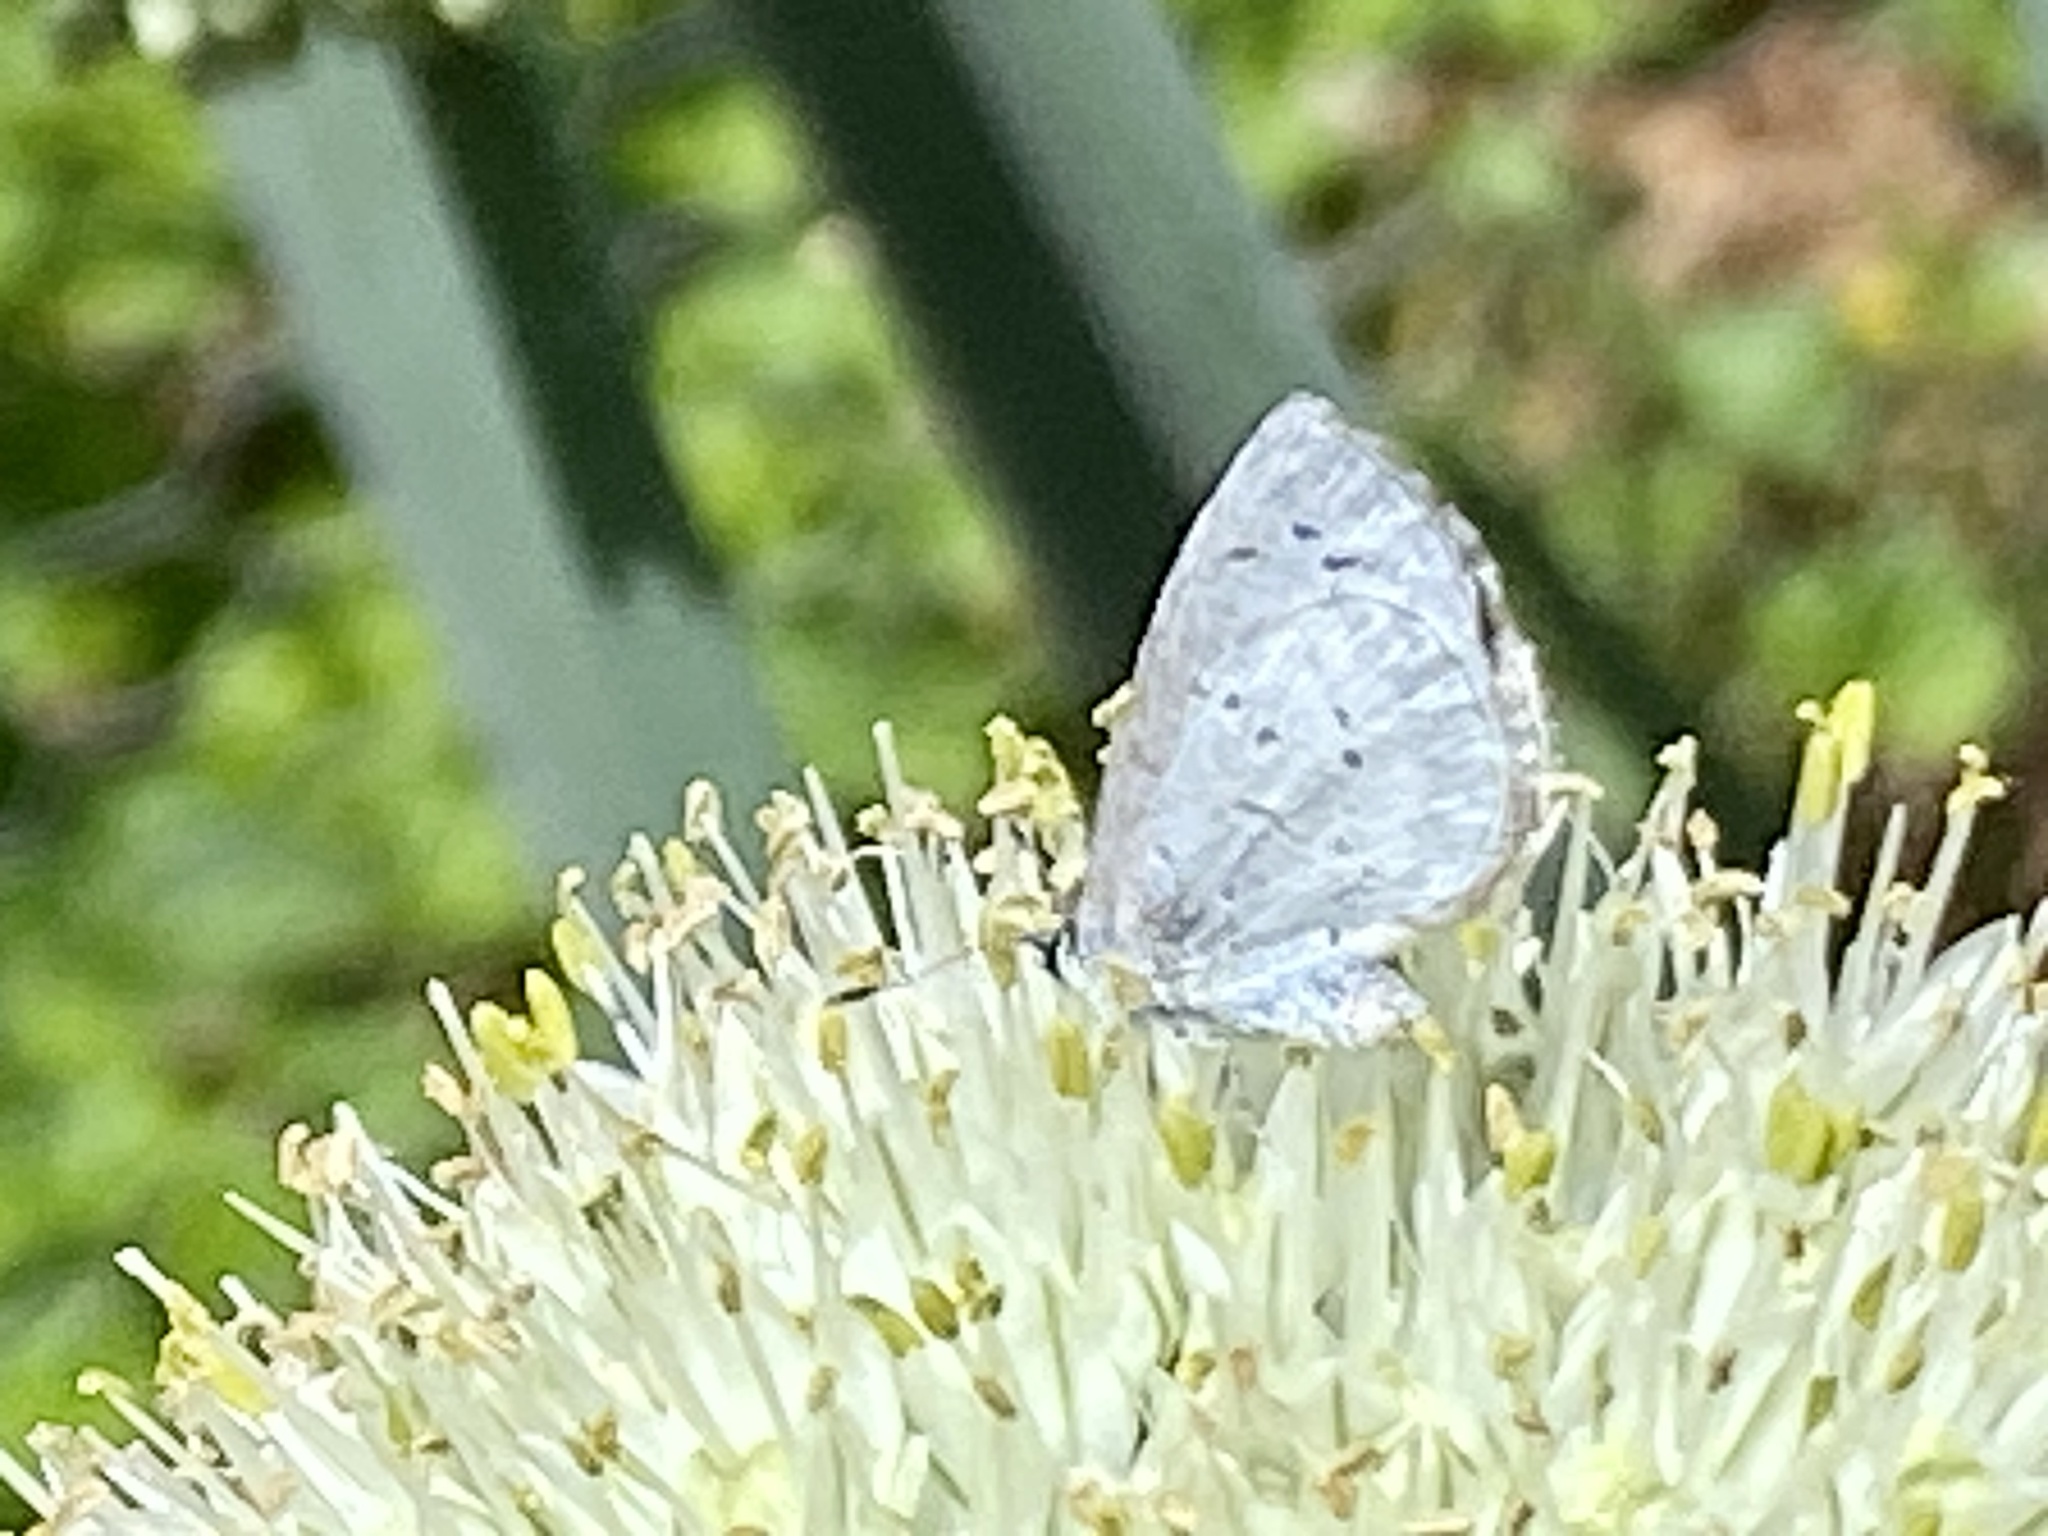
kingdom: Animalia
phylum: Arthropoda
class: Insecta
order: Lepidoptera
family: Lycaenidae
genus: Cyaniris
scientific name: Cyaniris neglecta
